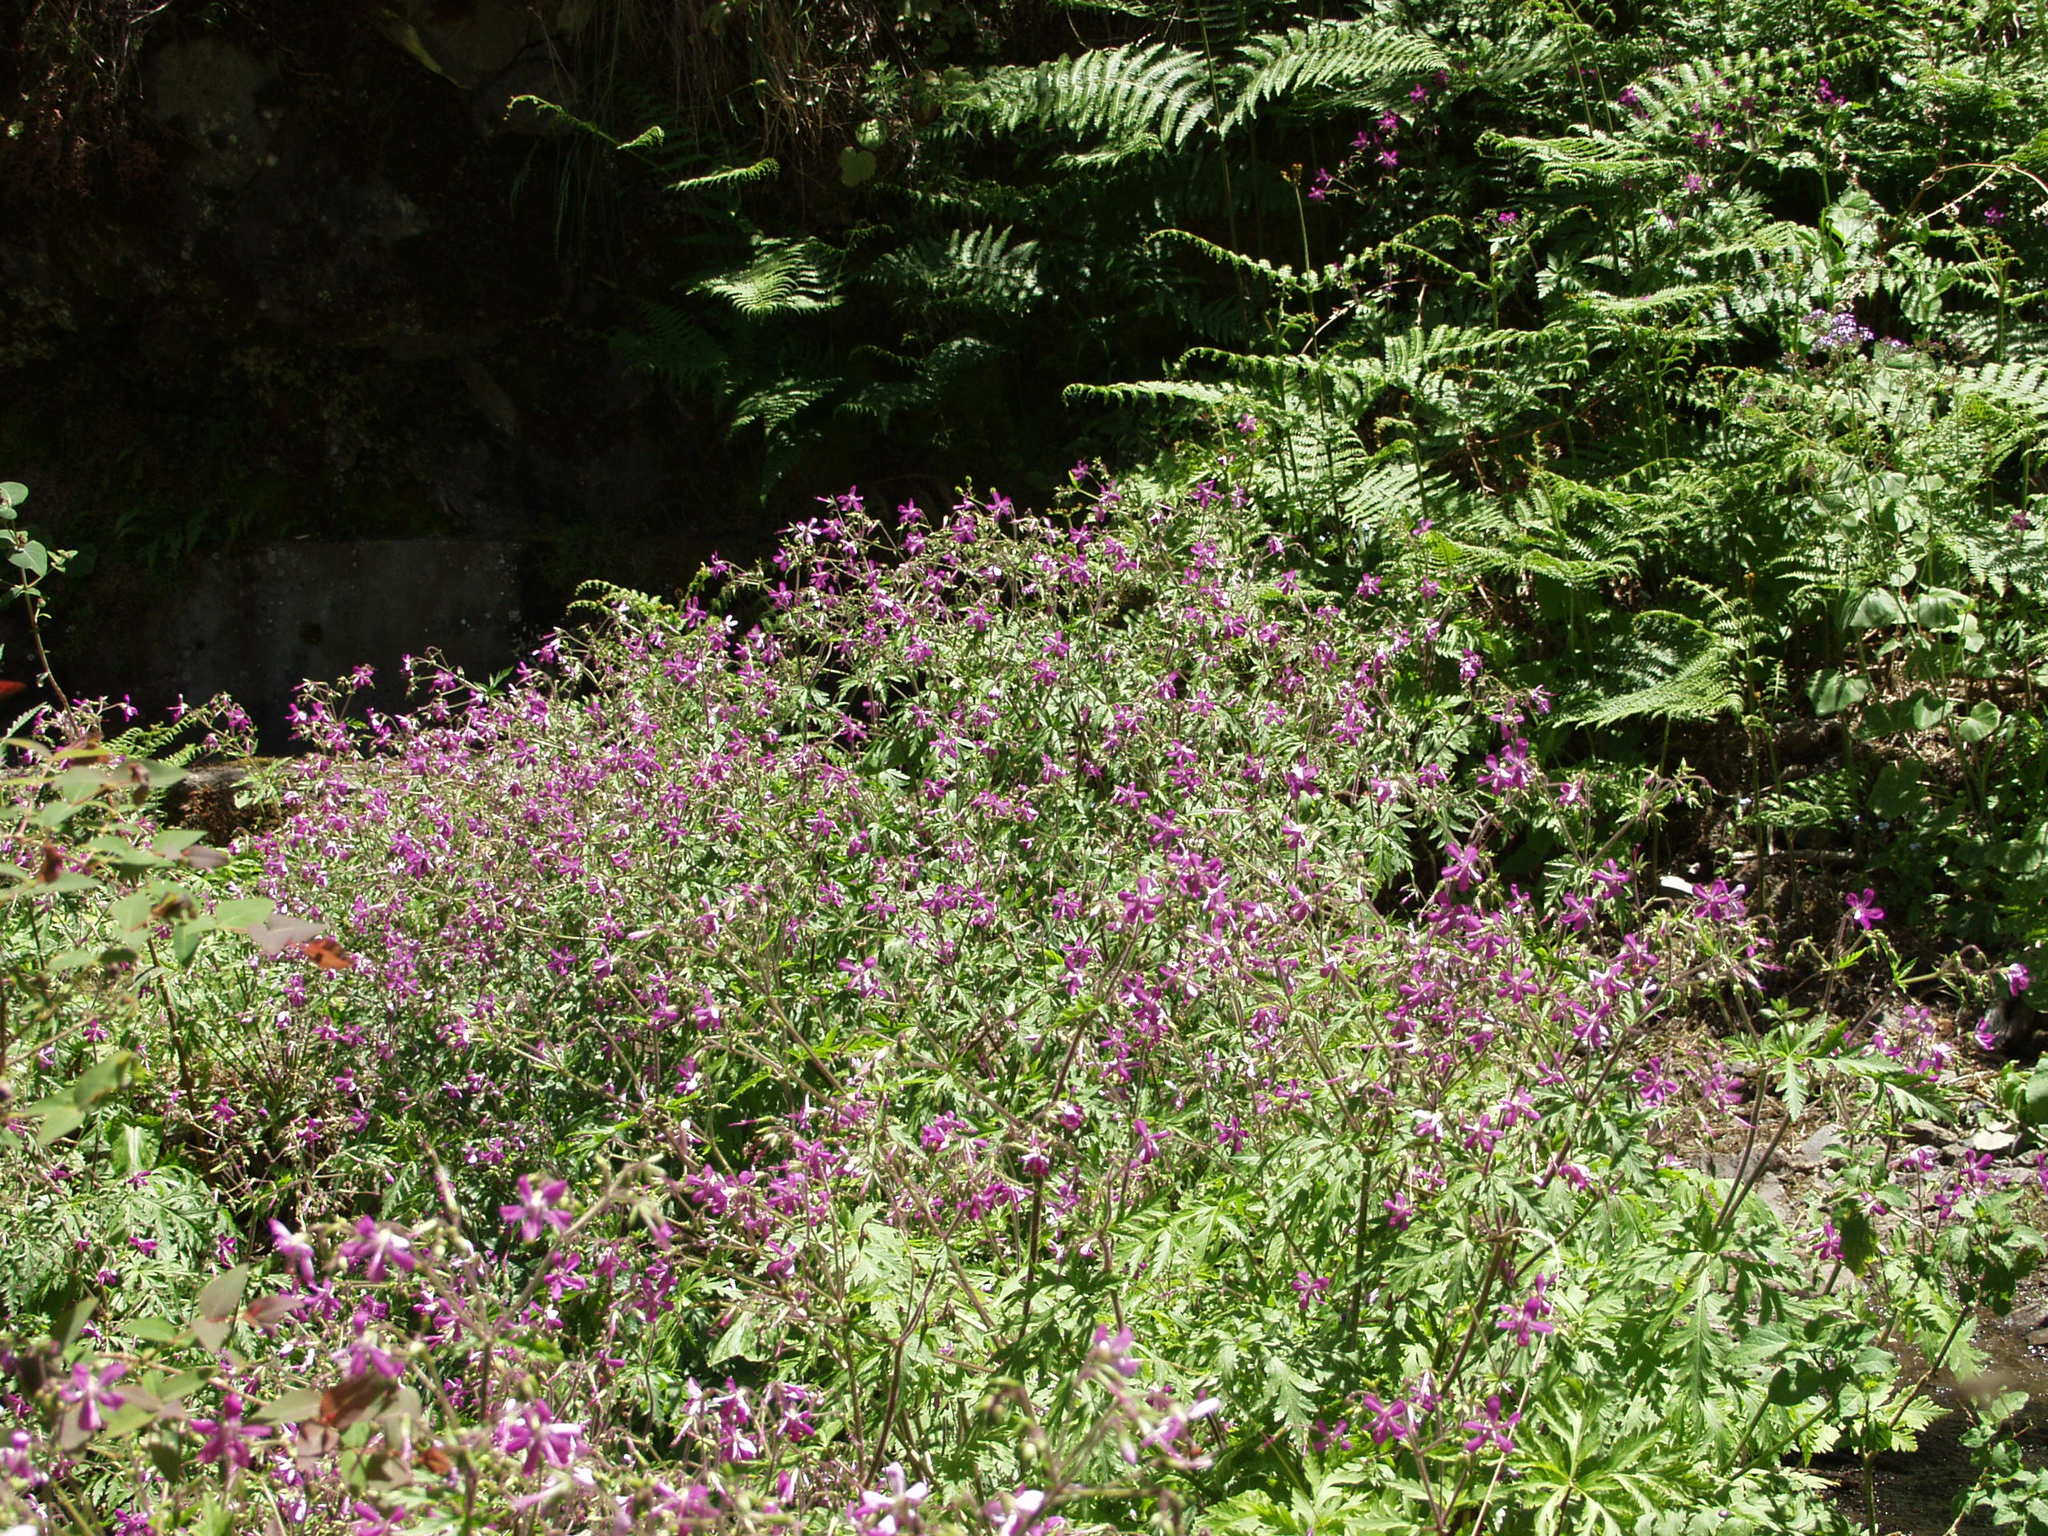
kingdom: Plantae
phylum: Tracheophyta
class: Magnoliopsida
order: Geraniales
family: Geraniaceae
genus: Geranium
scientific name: Geranium reuteri
